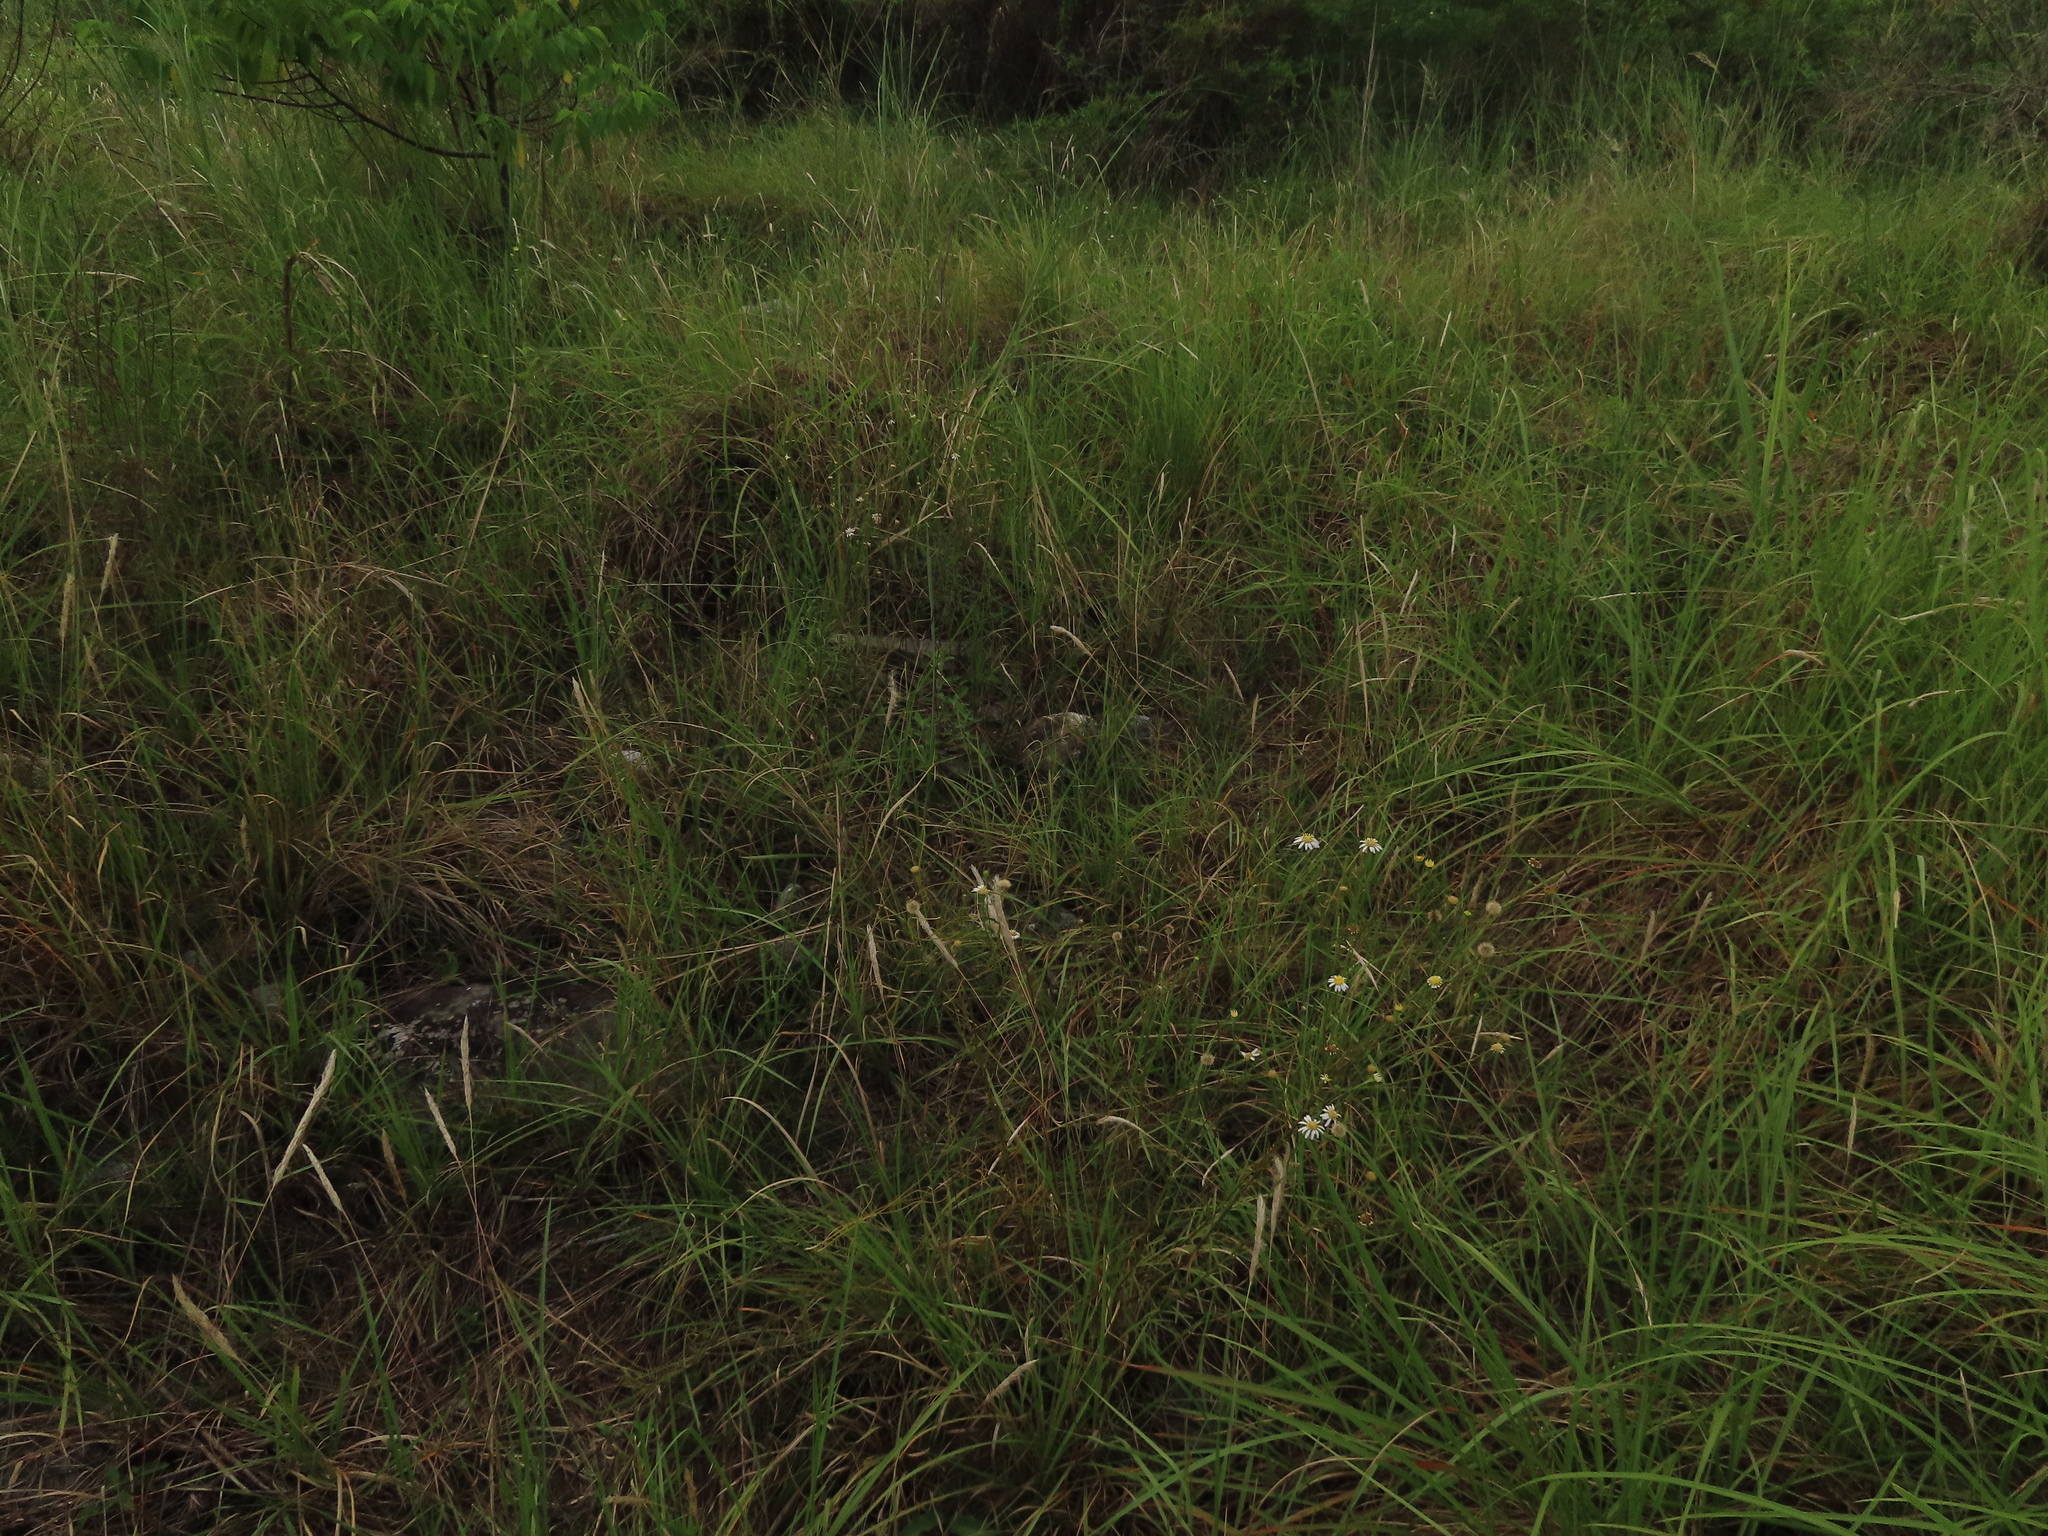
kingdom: Plantae
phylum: Tracheophyta
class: Magnoliopsida
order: Asterales
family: Asteraceae
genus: Heteropappus
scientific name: Heteropappus altaicus
